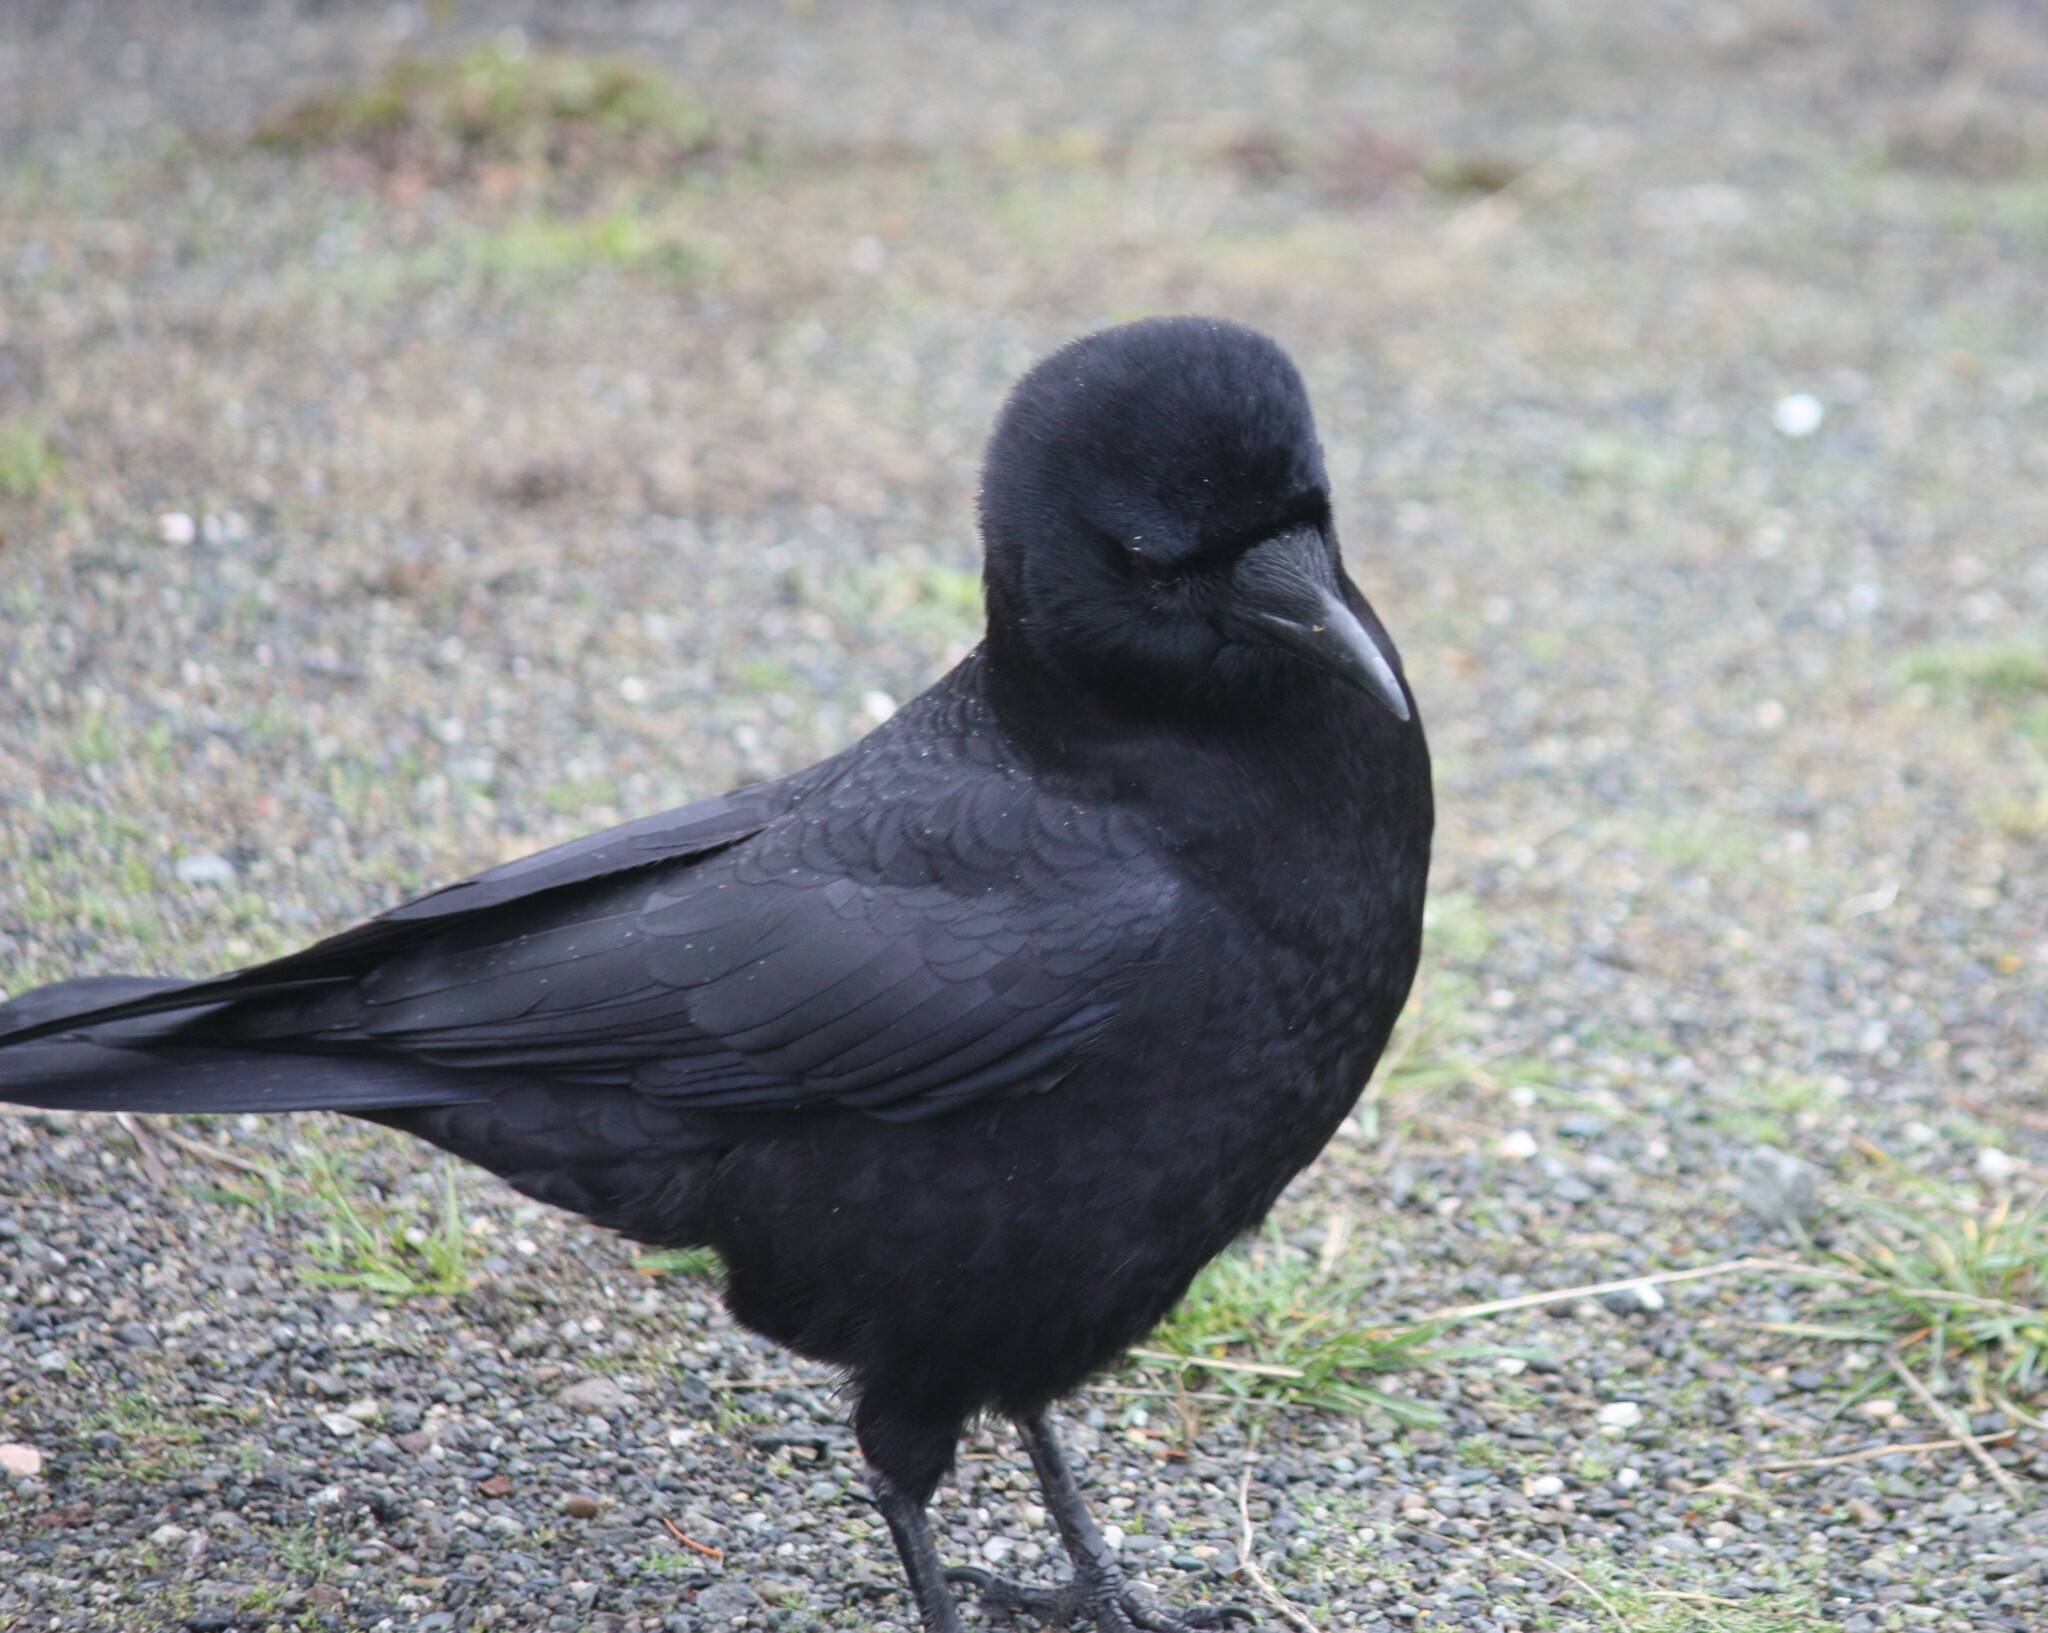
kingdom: Animalia
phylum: Chordata
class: Aves
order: Passeriformes
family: Corvidae
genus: Corvus
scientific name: Corvus brachyrhynchos
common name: American crow
